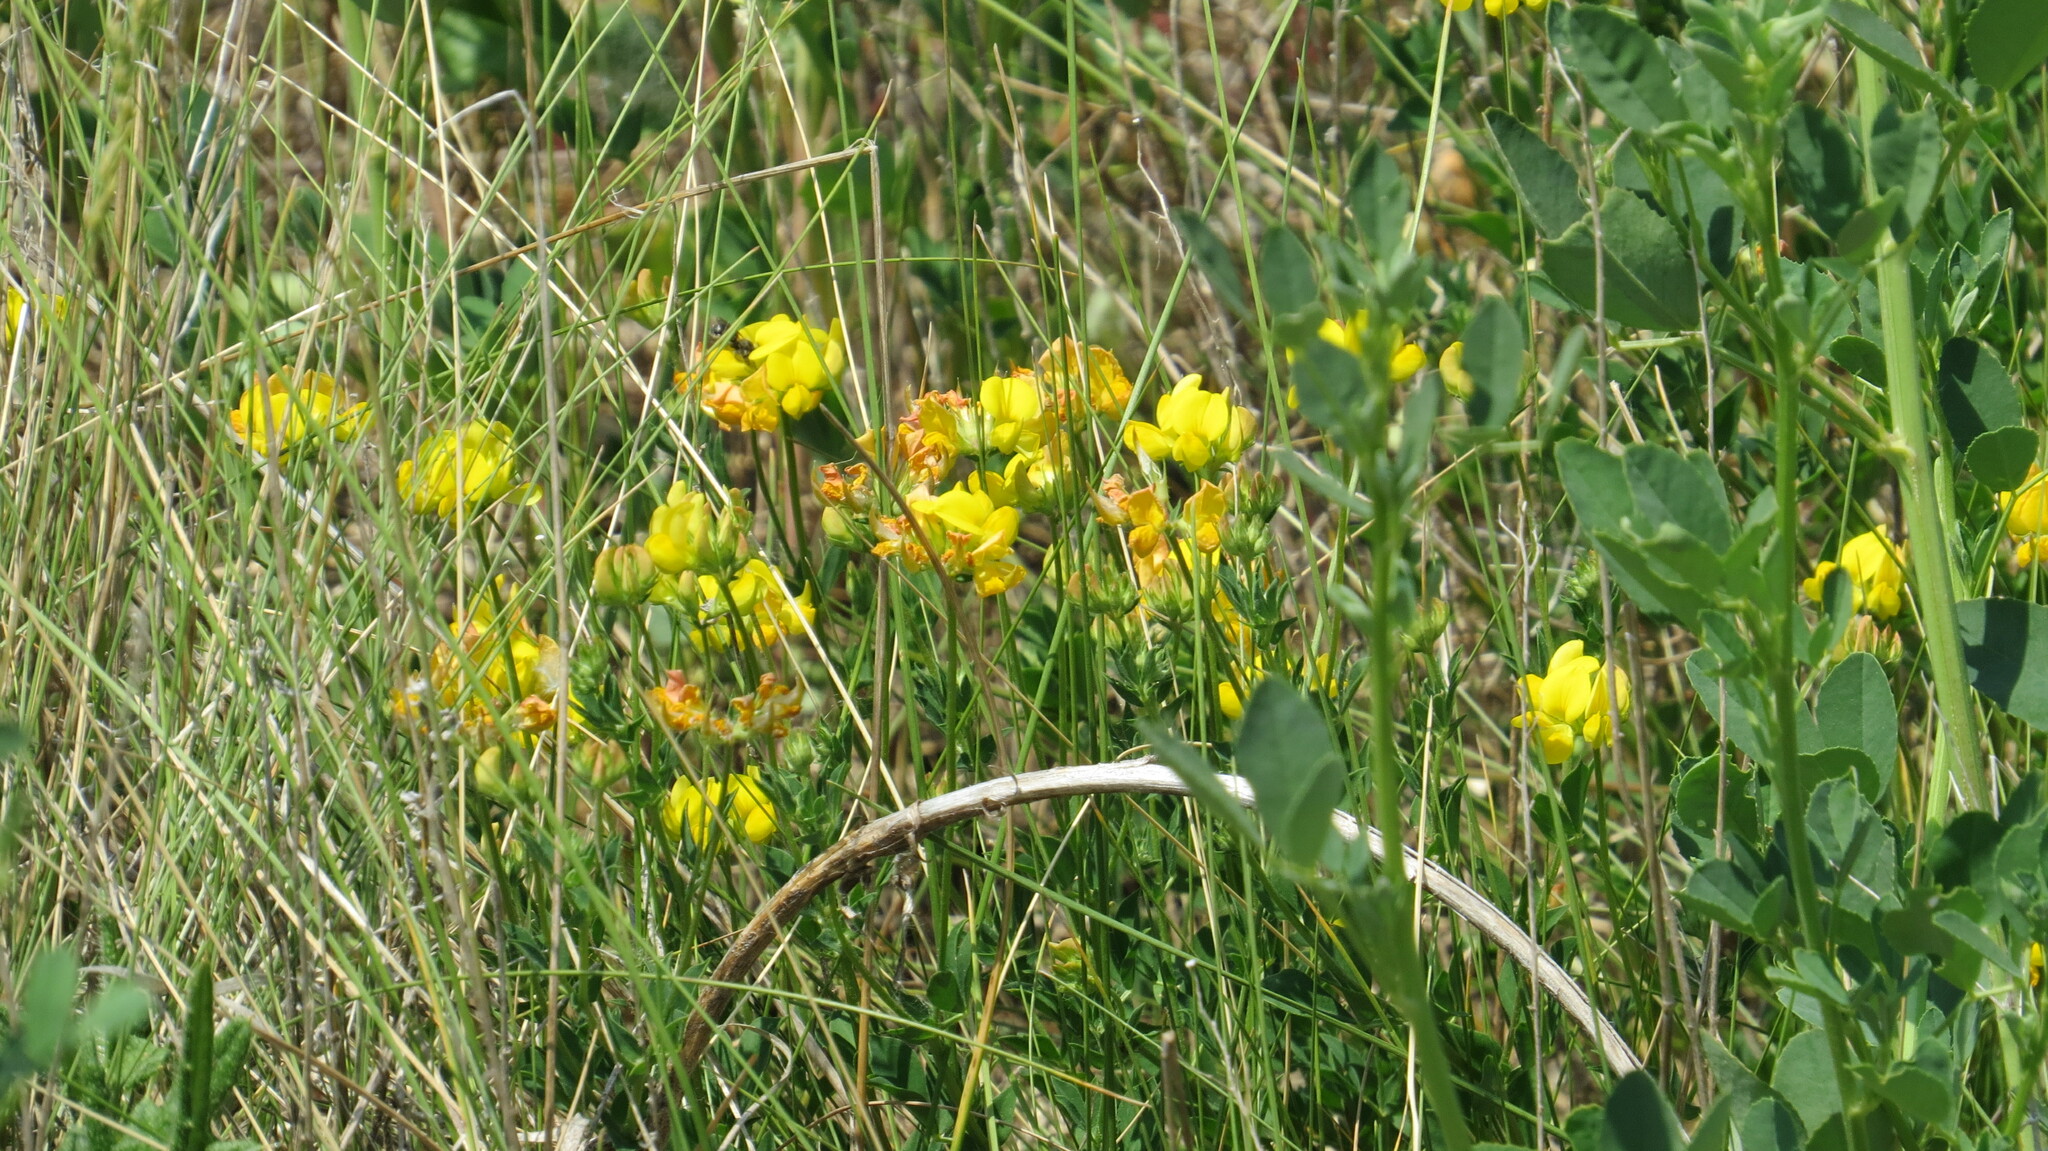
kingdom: Plantae
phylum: Tracheophyta
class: Magnoliopsida
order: Fabales
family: Fabaceae
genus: Lotus
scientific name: Lotus corniculatus
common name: Common bird's-foot-trefoil
